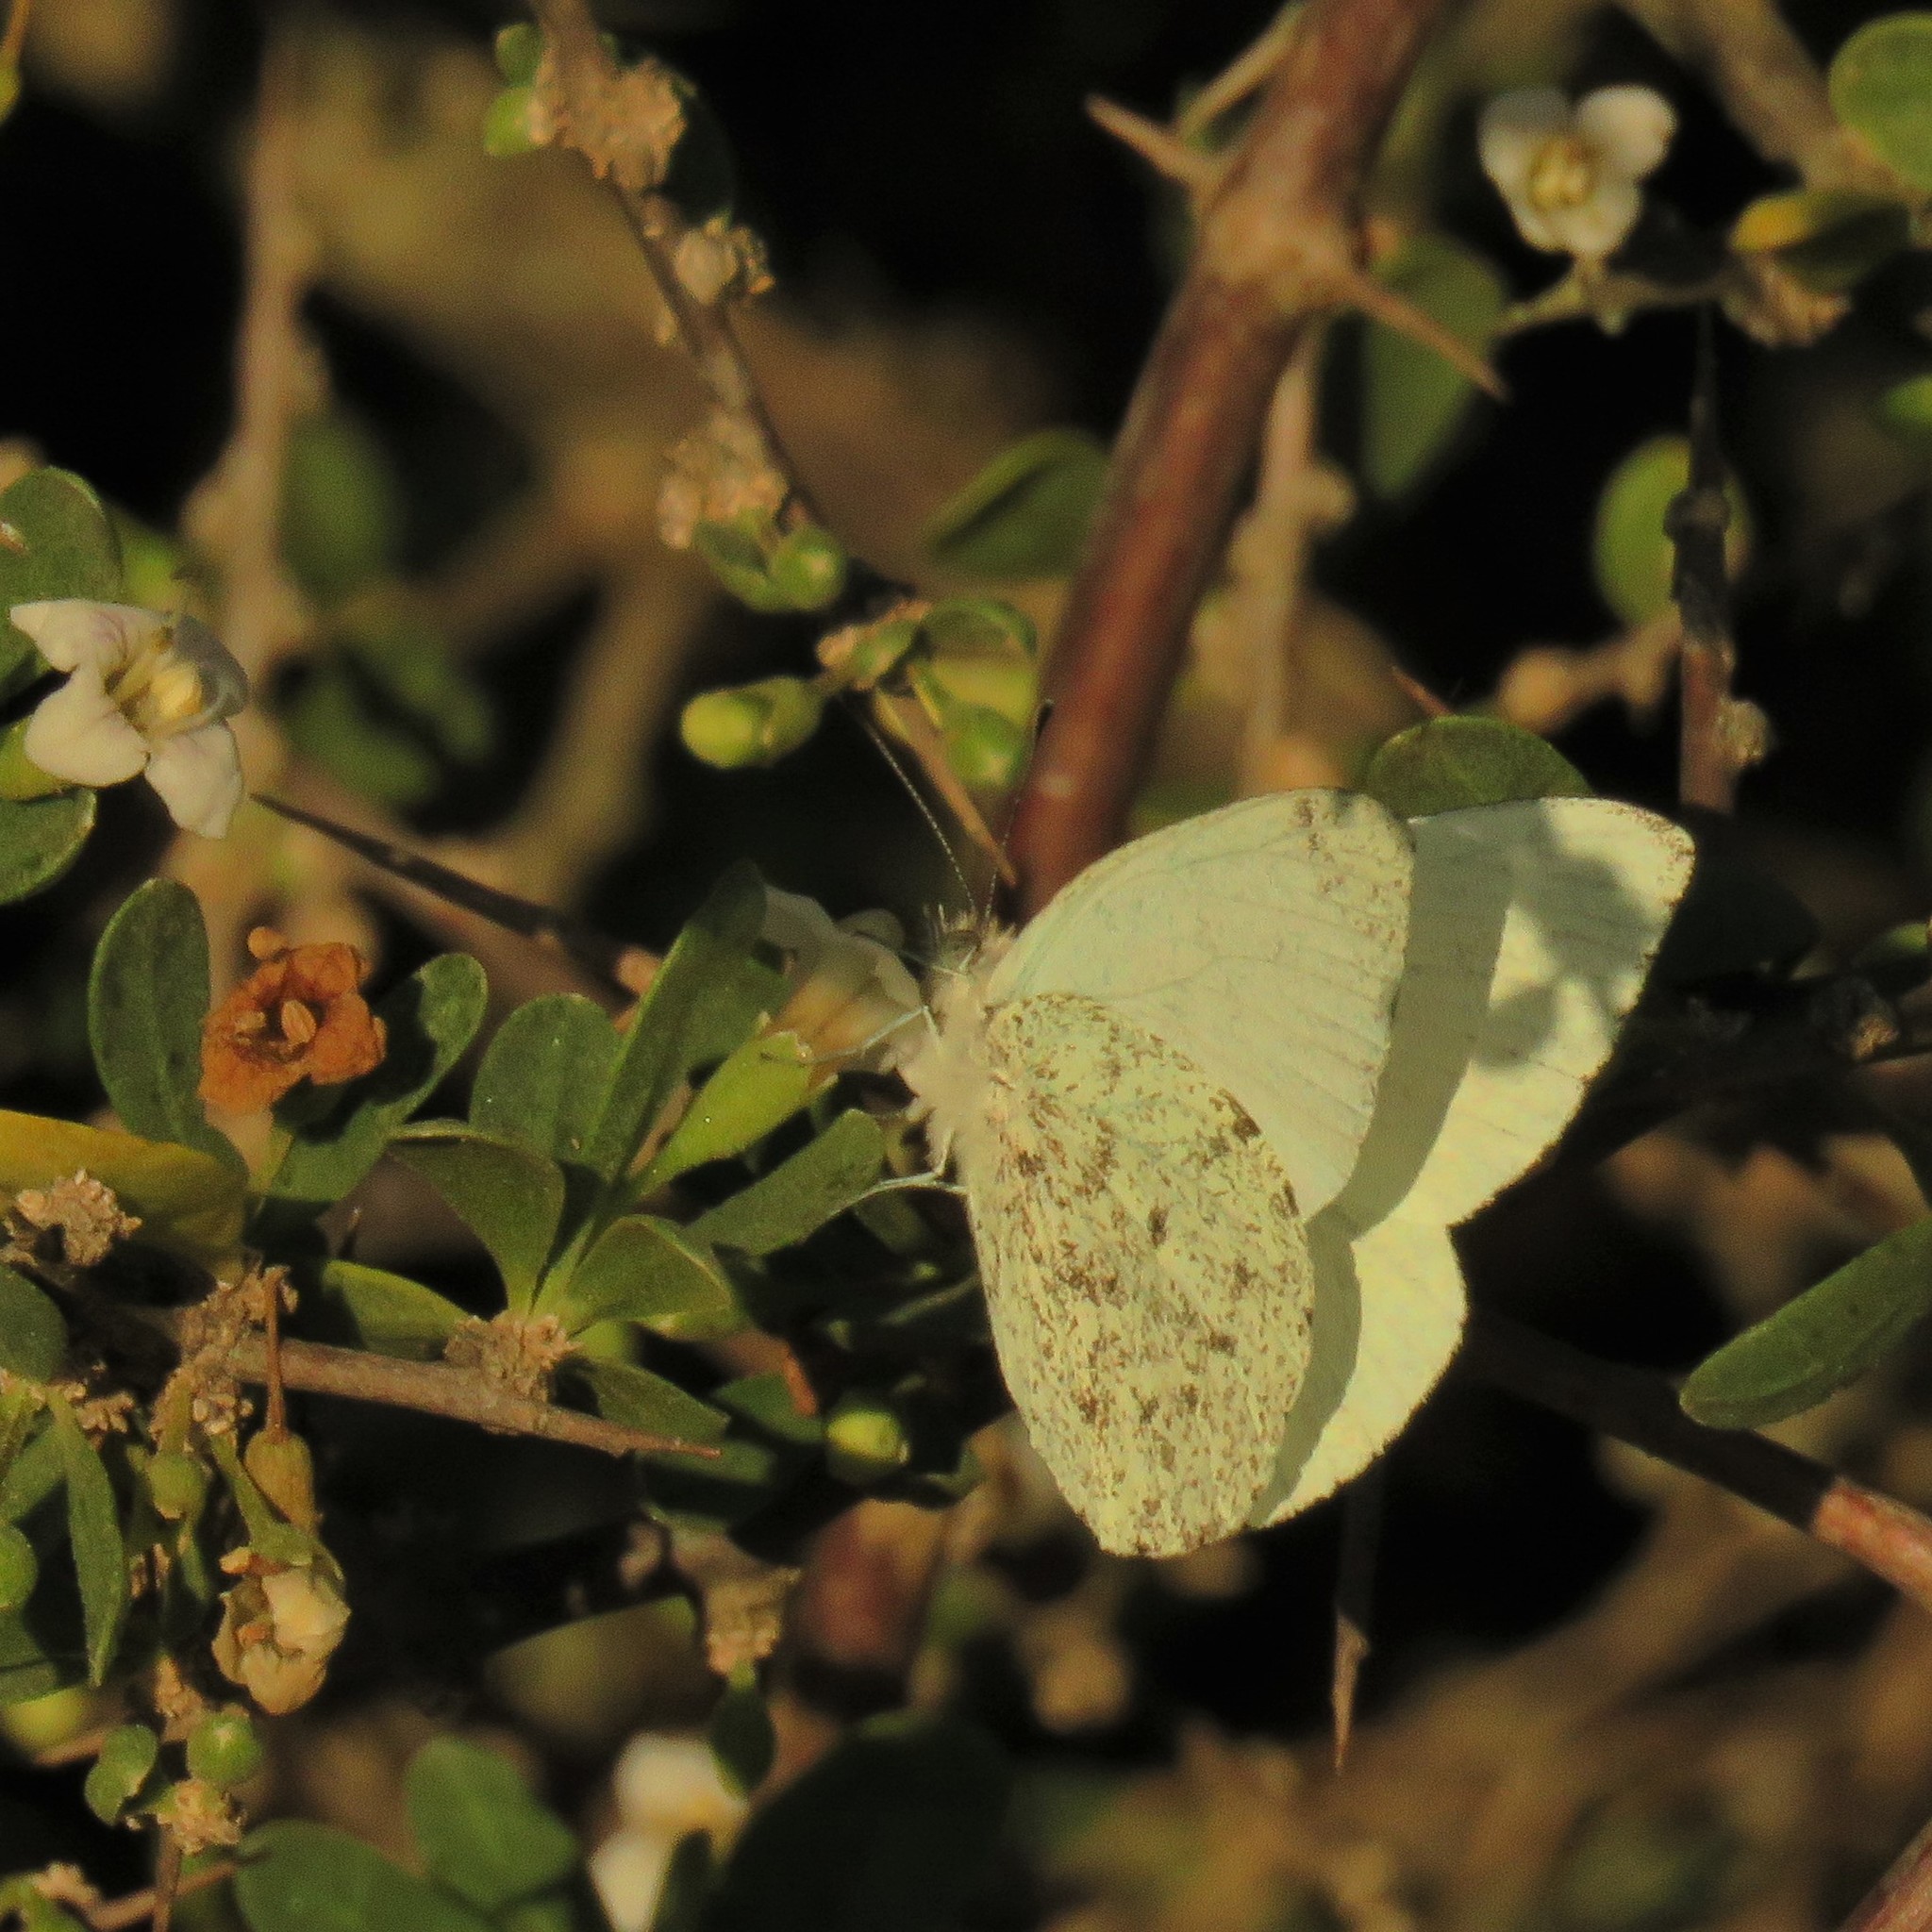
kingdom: Animalia
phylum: Arthropoda
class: Insecta
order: Lepidoptera
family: Pieridae
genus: Dixeia
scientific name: Dixeia charina
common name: African small white
